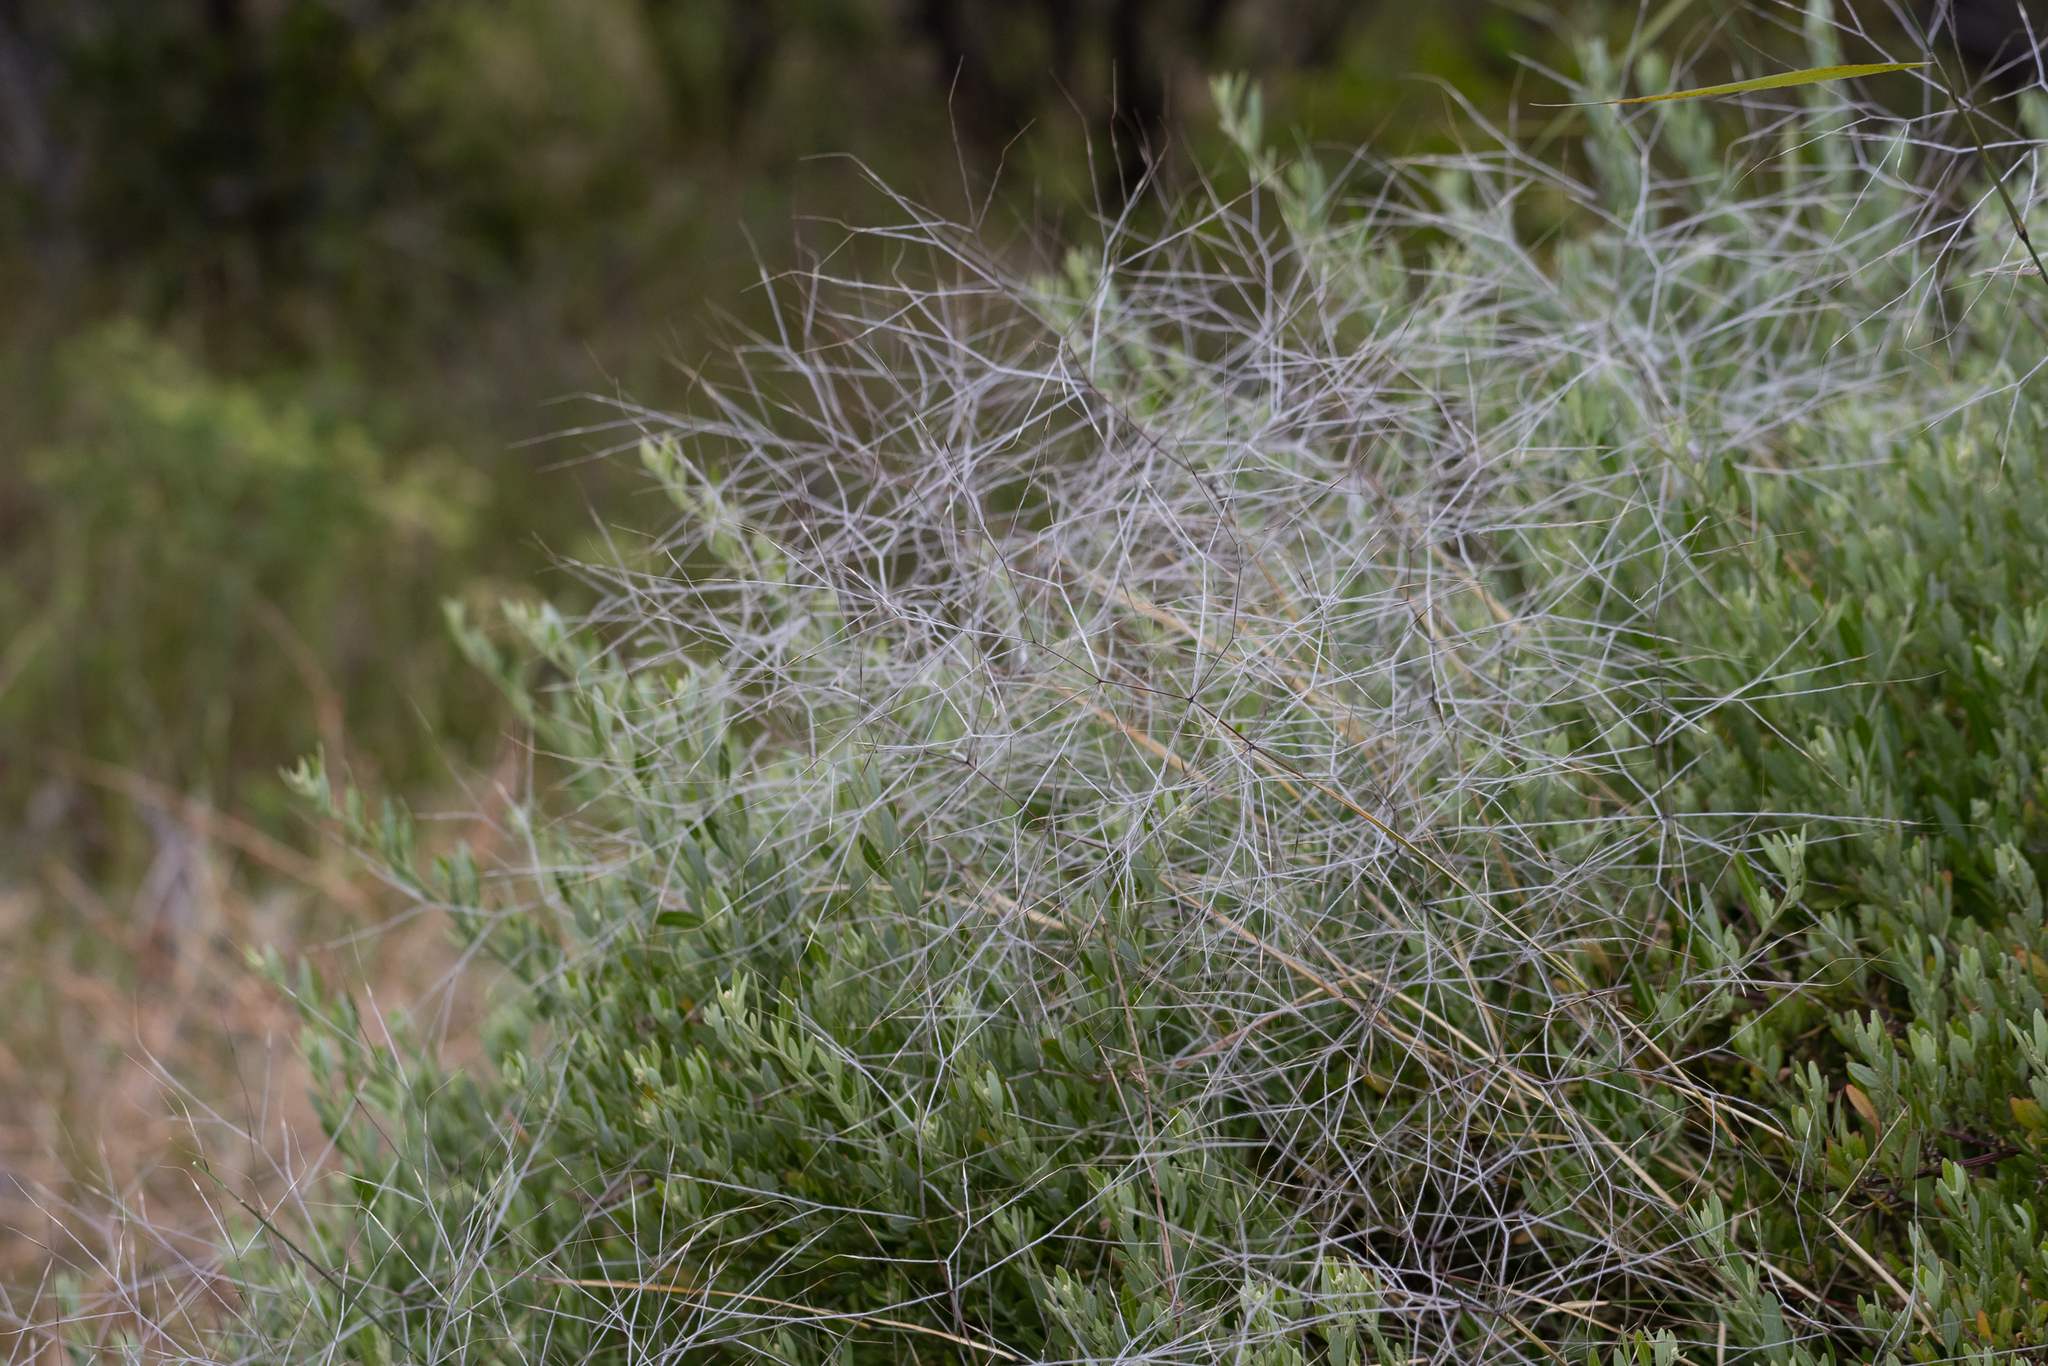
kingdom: Plantae
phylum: Tracheophyta
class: Liliopsida
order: Poales
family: Poaceae
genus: Austrostipa
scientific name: Austrostipa elegantissima
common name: Feather spear grass
